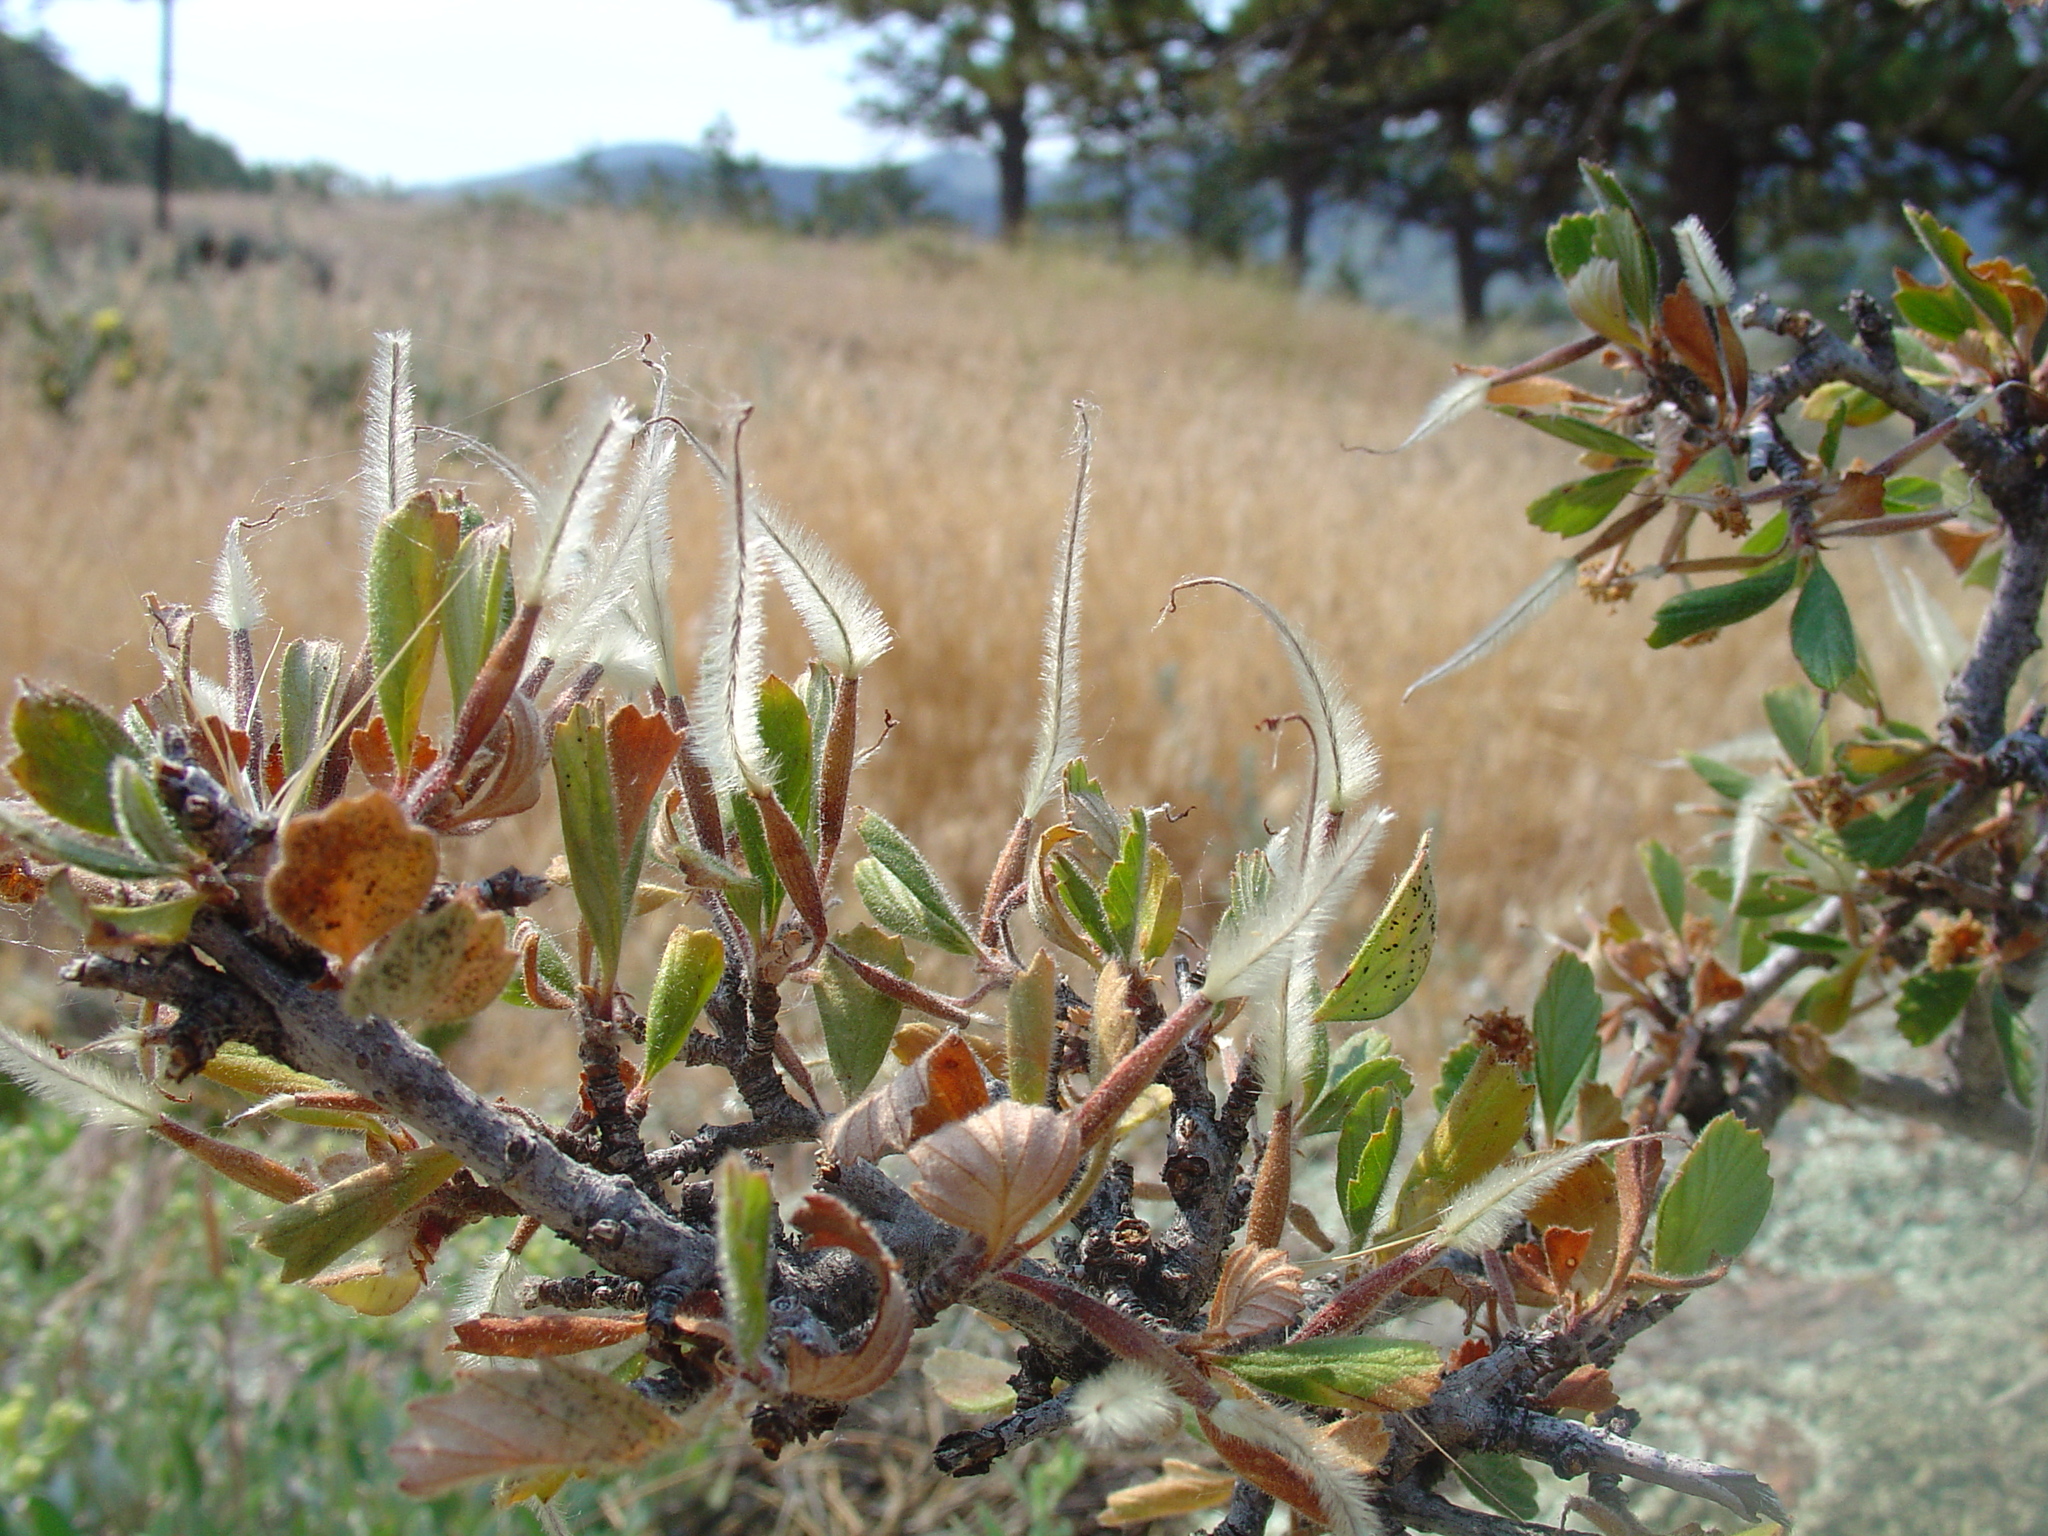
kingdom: Plantae
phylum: Tracheophyta
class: Magnoliopsida
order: Rosales
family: Rosaceae
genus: Cercocarpus
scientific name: Cercocarpus montanus
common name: Alder-leaf cercocarpus
